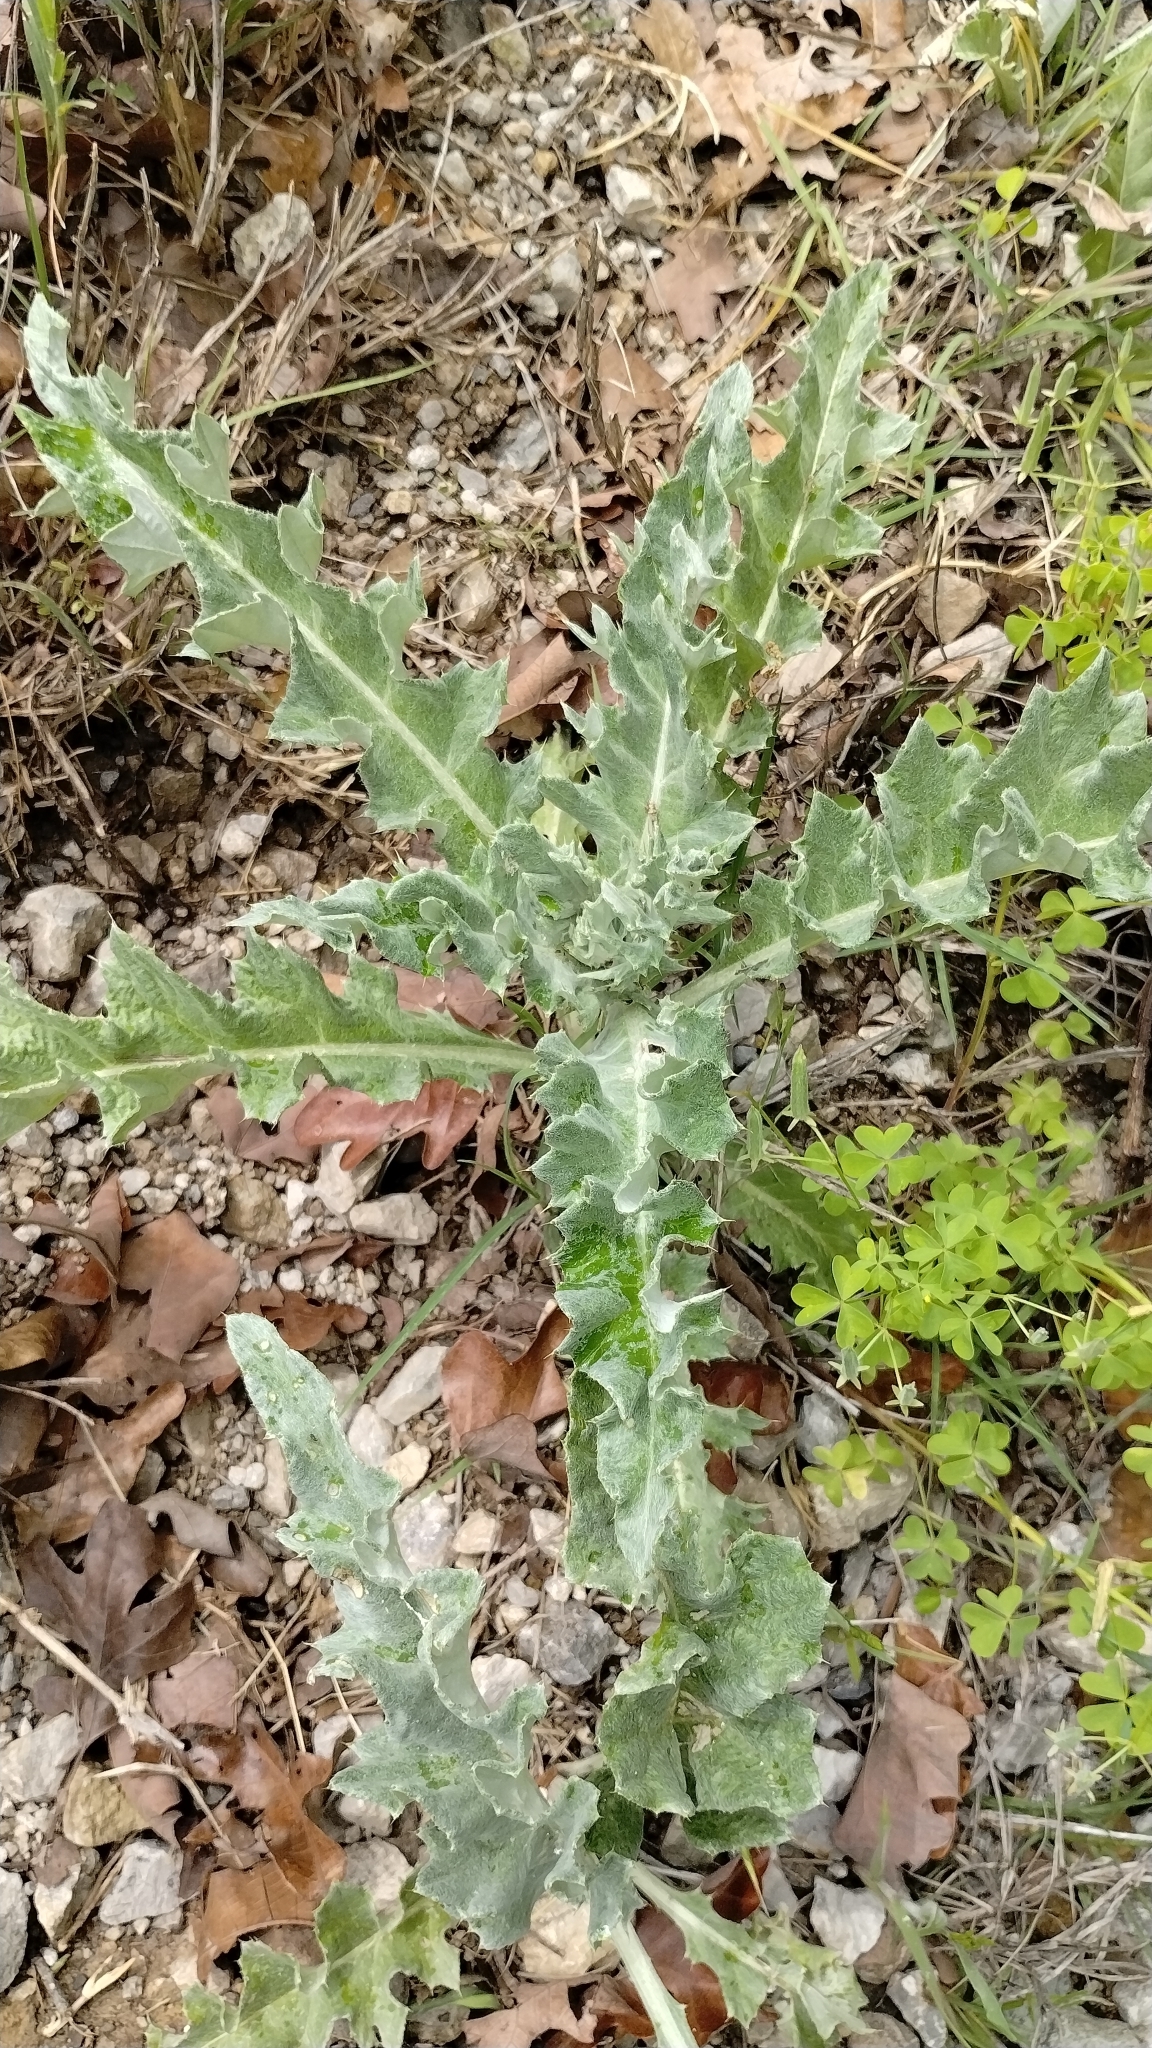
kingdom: Plantae
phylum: Tracheophyta
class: Magnoliopsida
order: Asterales
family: Asteraceae
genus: Cirsium
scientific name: Cirsium undulatum
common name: Pasture thistle
